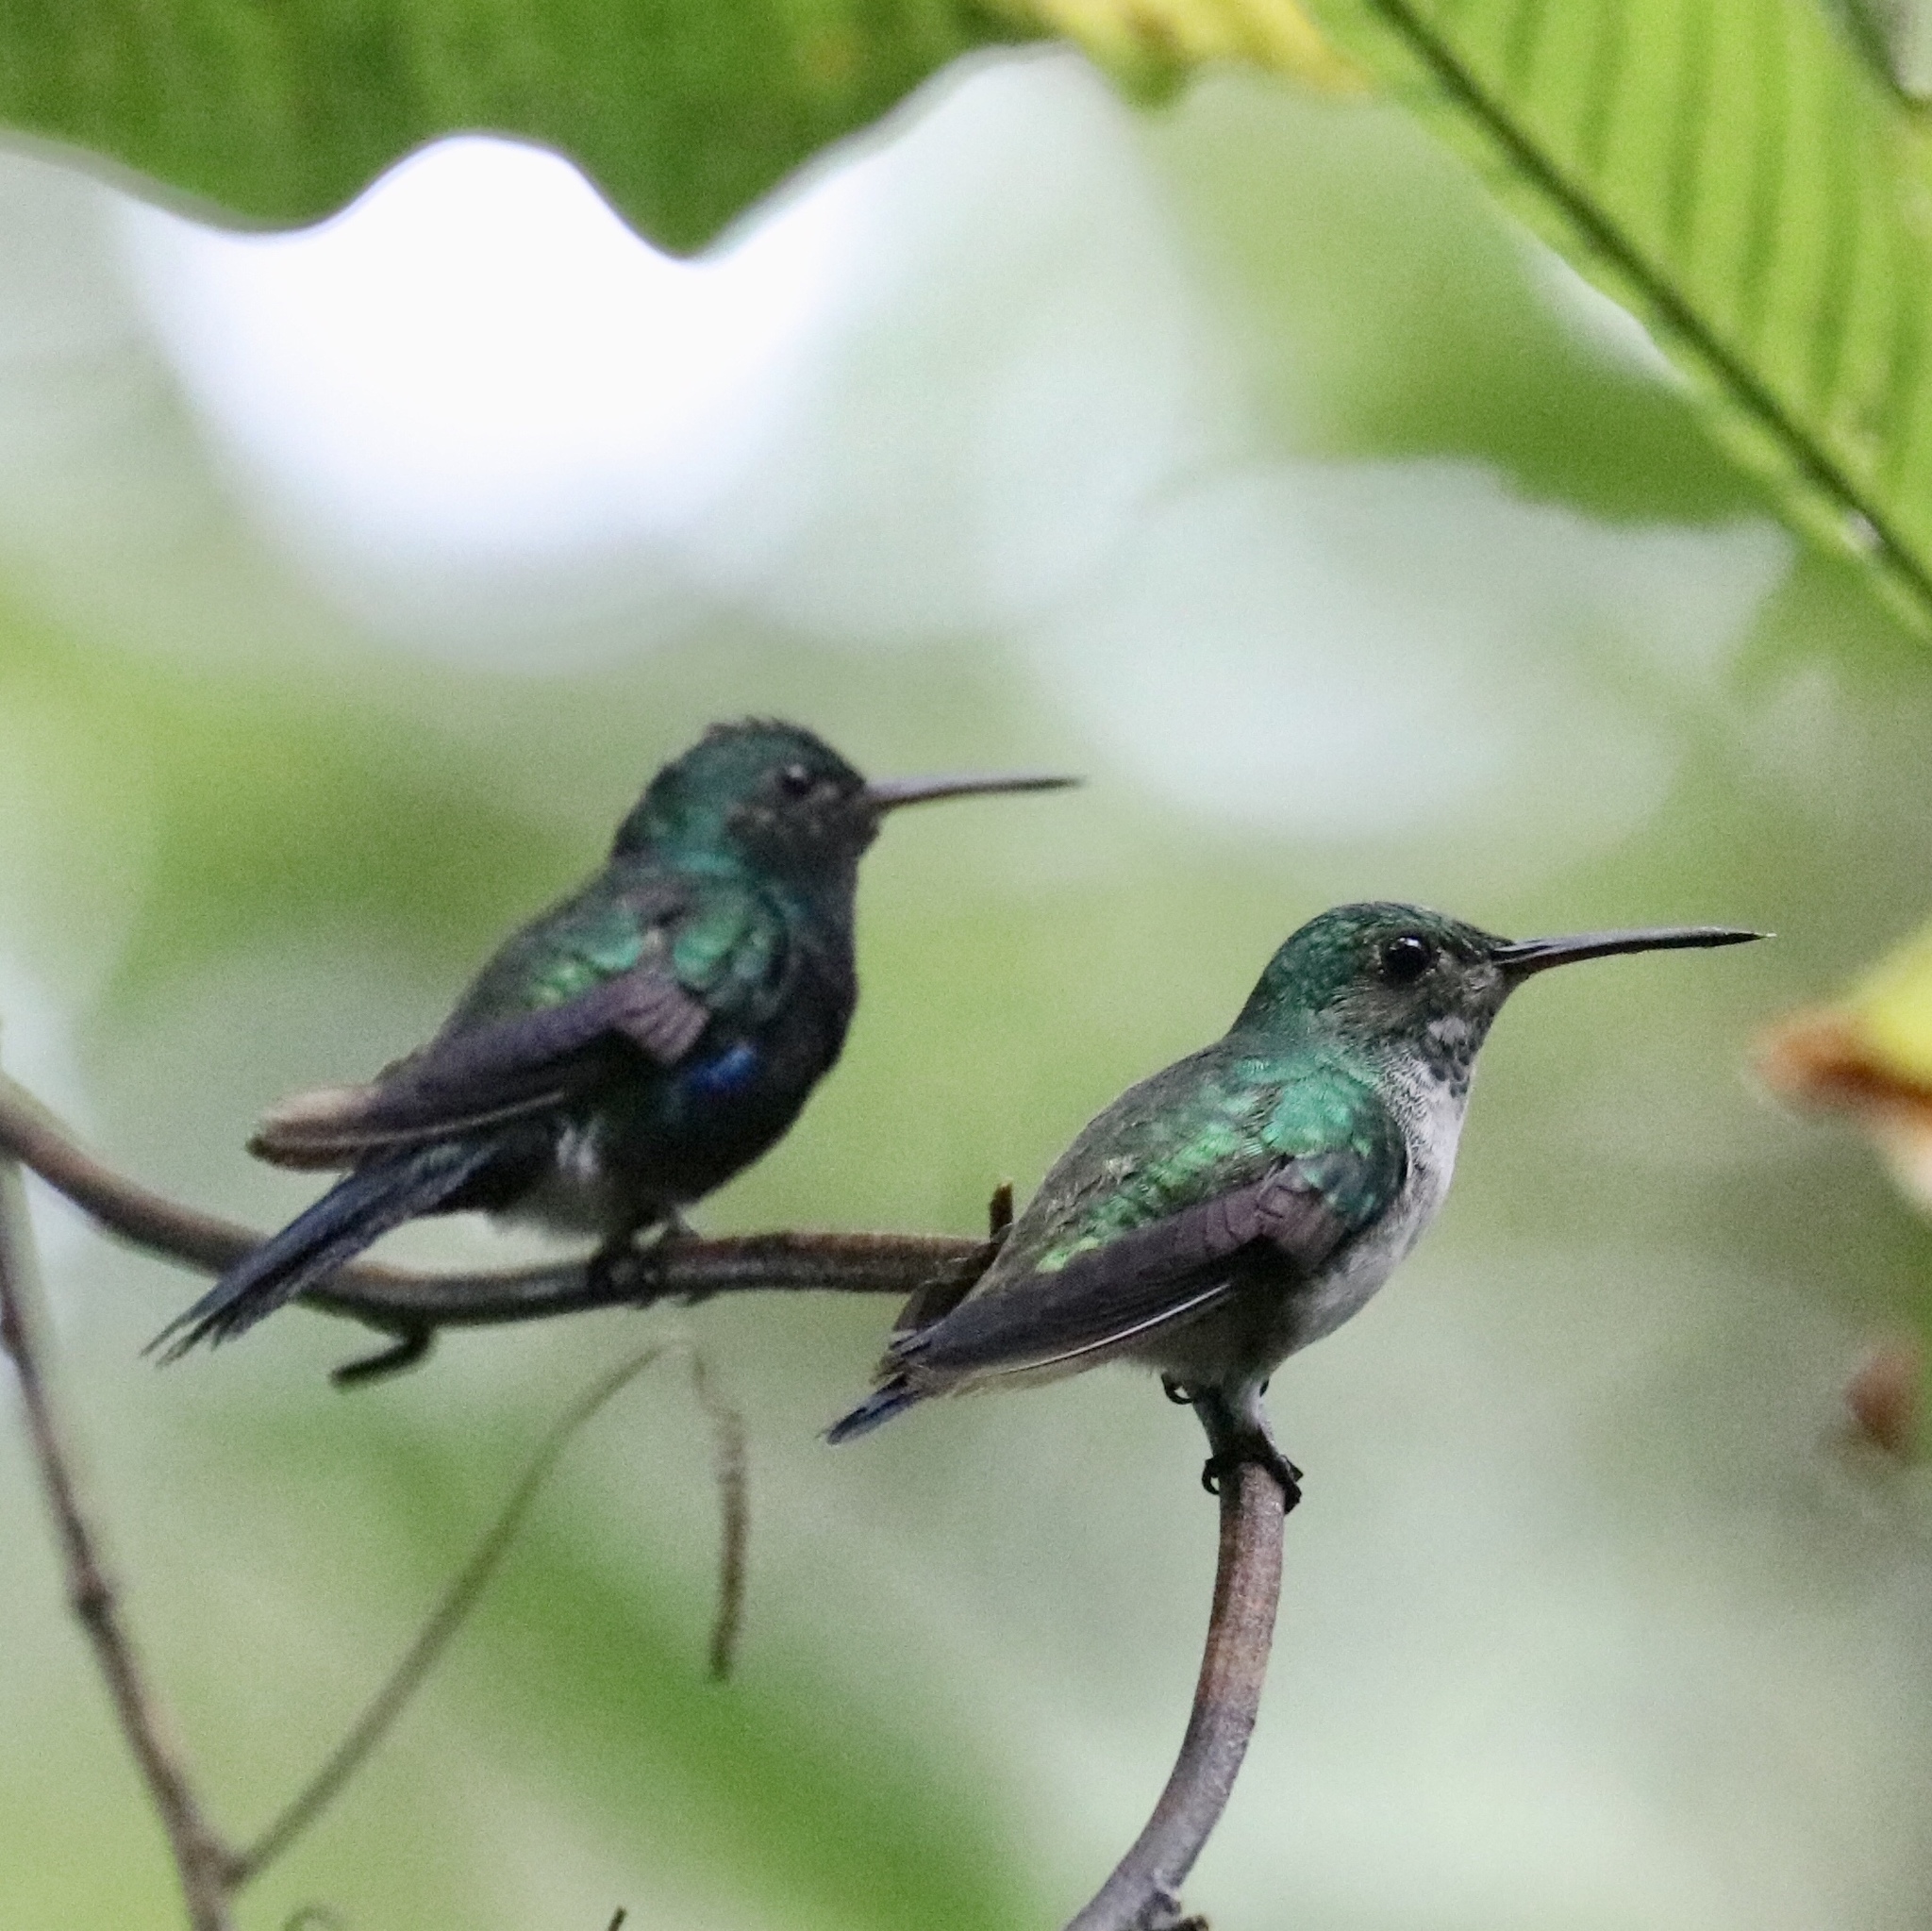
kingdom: Animalia
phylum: Chordata
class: Aves
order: Apodiformes
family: Trochilidae
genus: Chlorestes
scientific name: Chlorestes julie
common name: Violet-bellied hummingbird
